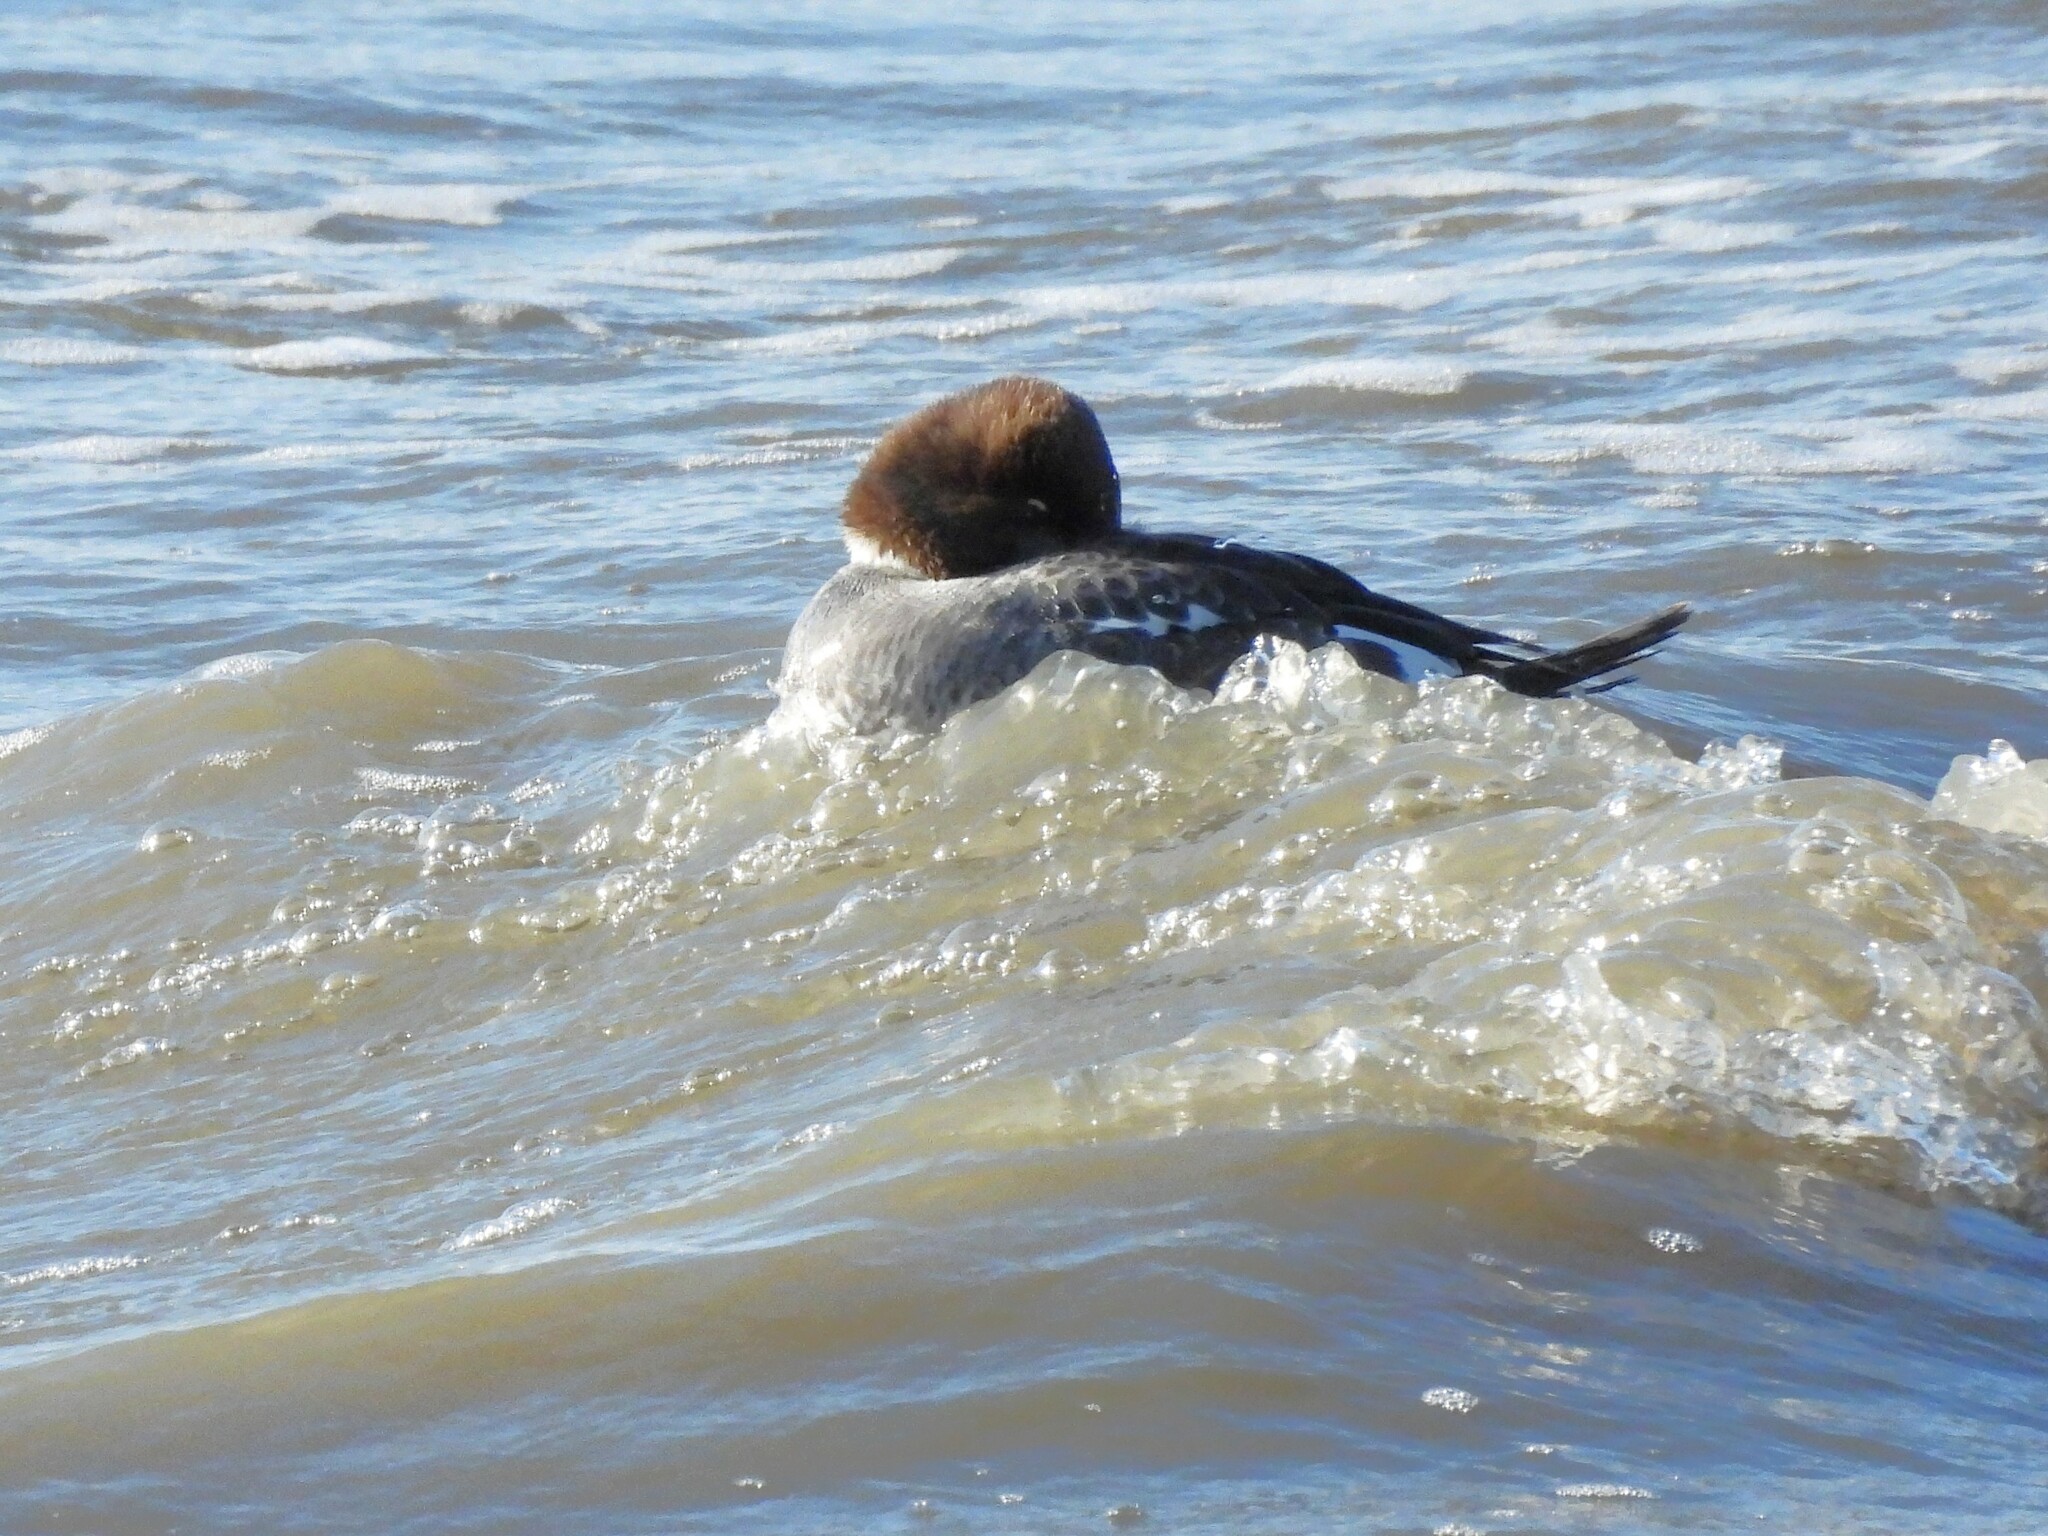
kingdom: Animalia
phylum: Chordata
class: Aves
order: Anseriformes
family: Anatidae
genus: Bucephala
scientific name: Bucephala clangula
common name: Common goldeneye
